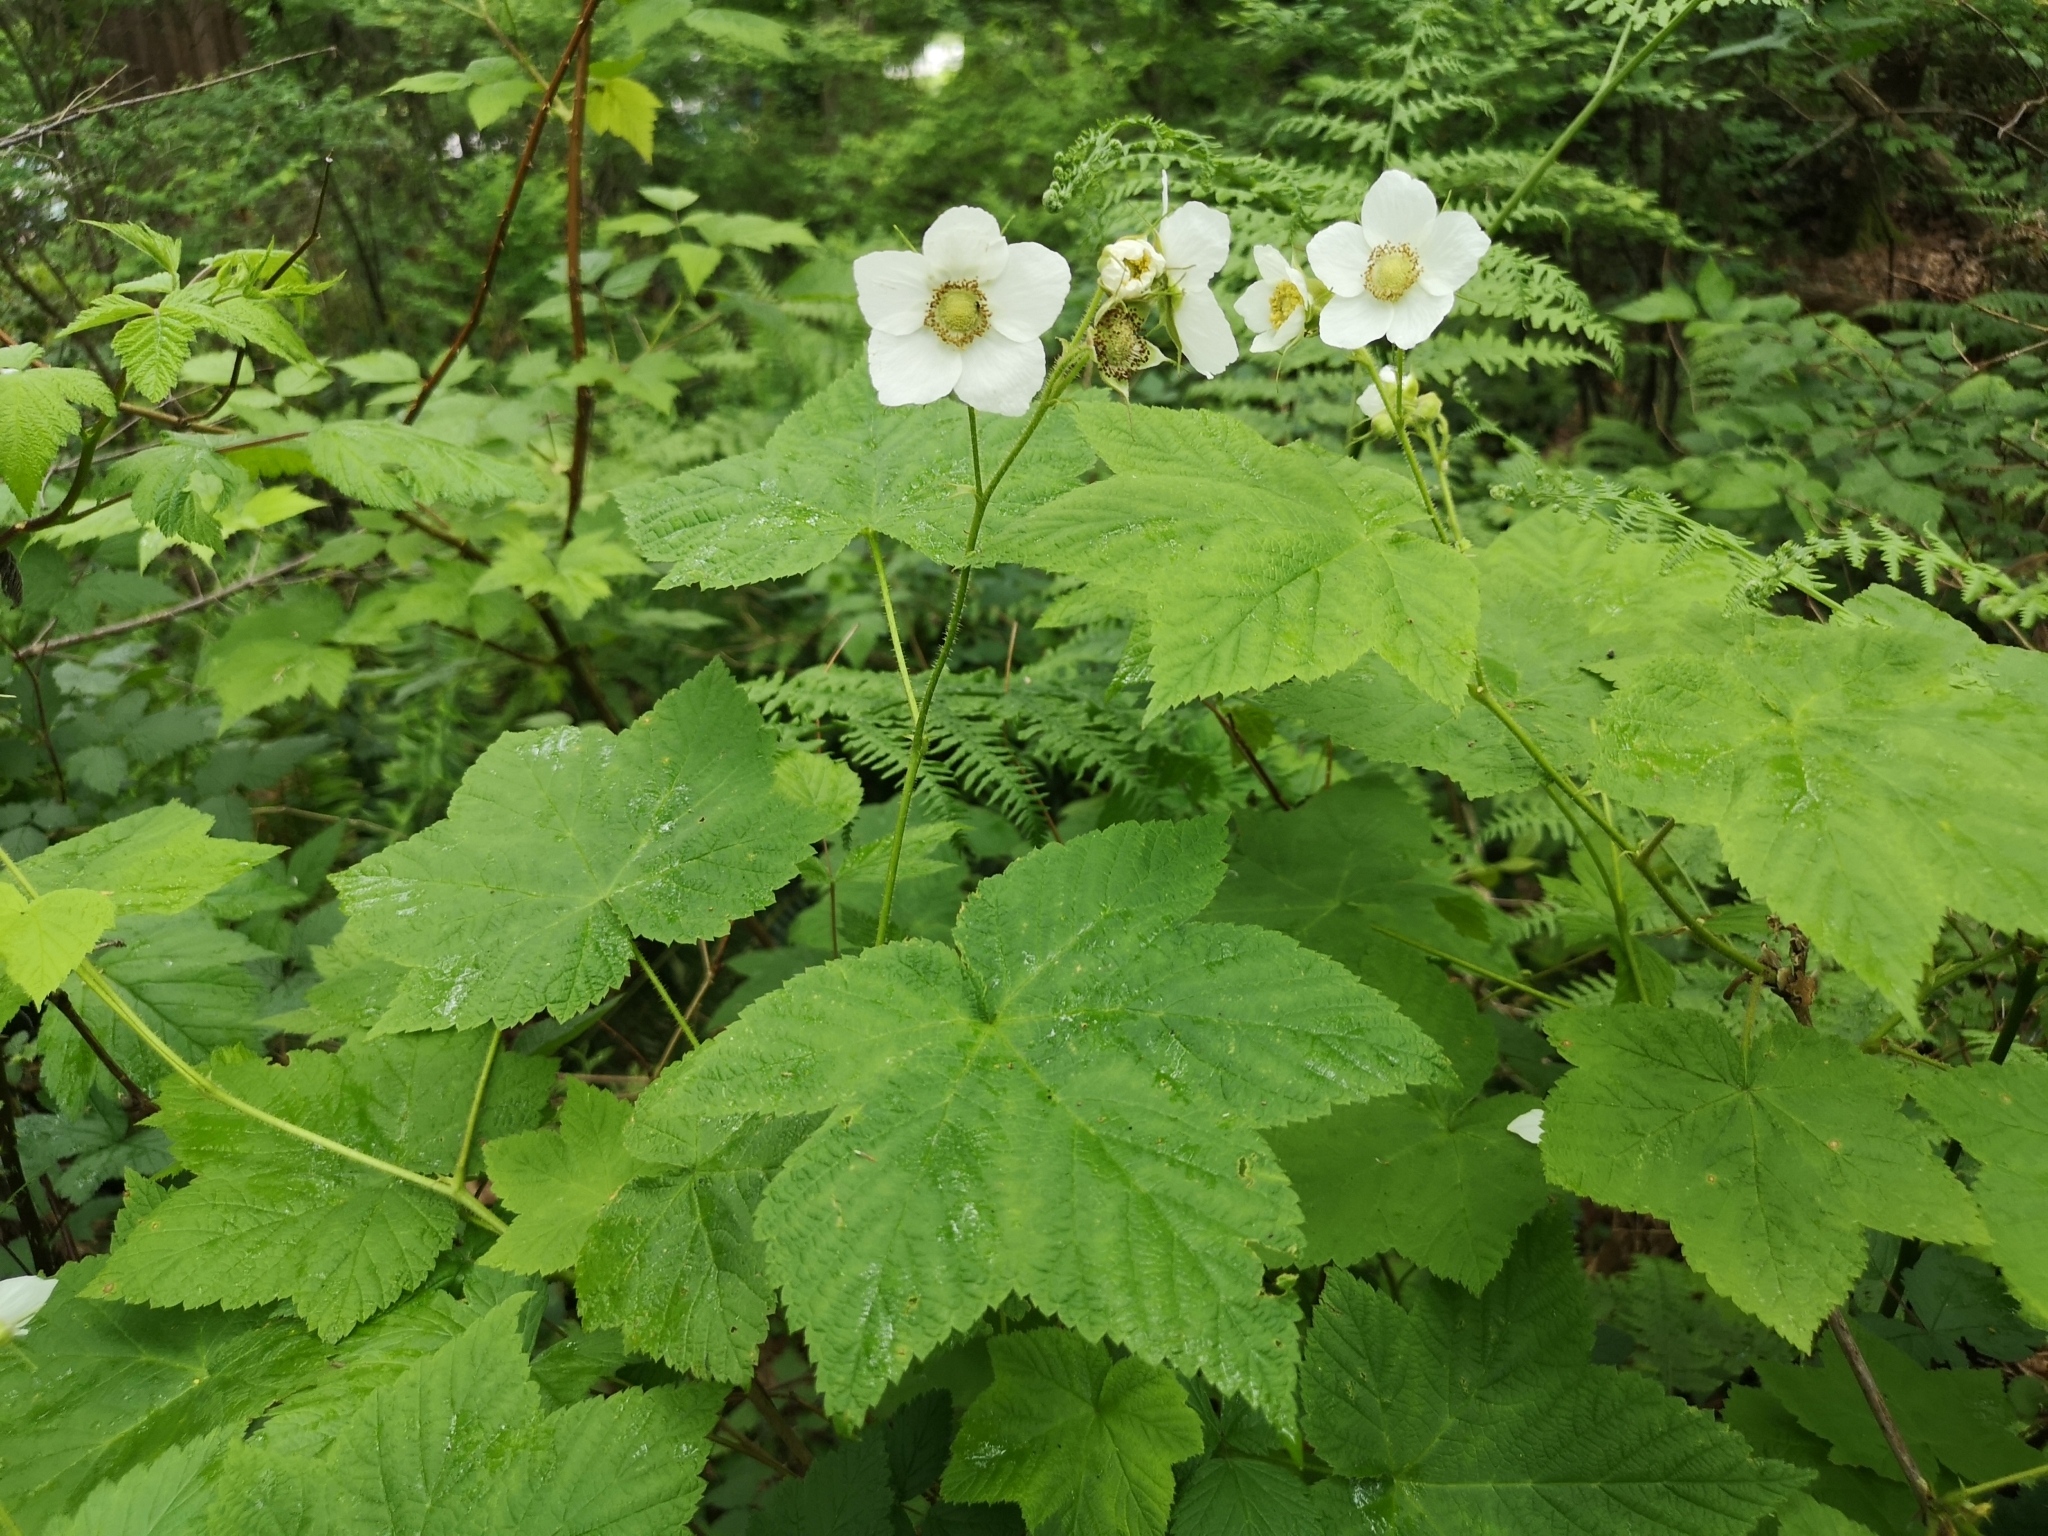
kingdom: Plantae
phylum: Tracheophyta
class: Magnoliopsida
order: Rosales
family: Rosaceae
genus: Rubus
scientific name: Rubus parviflorus
